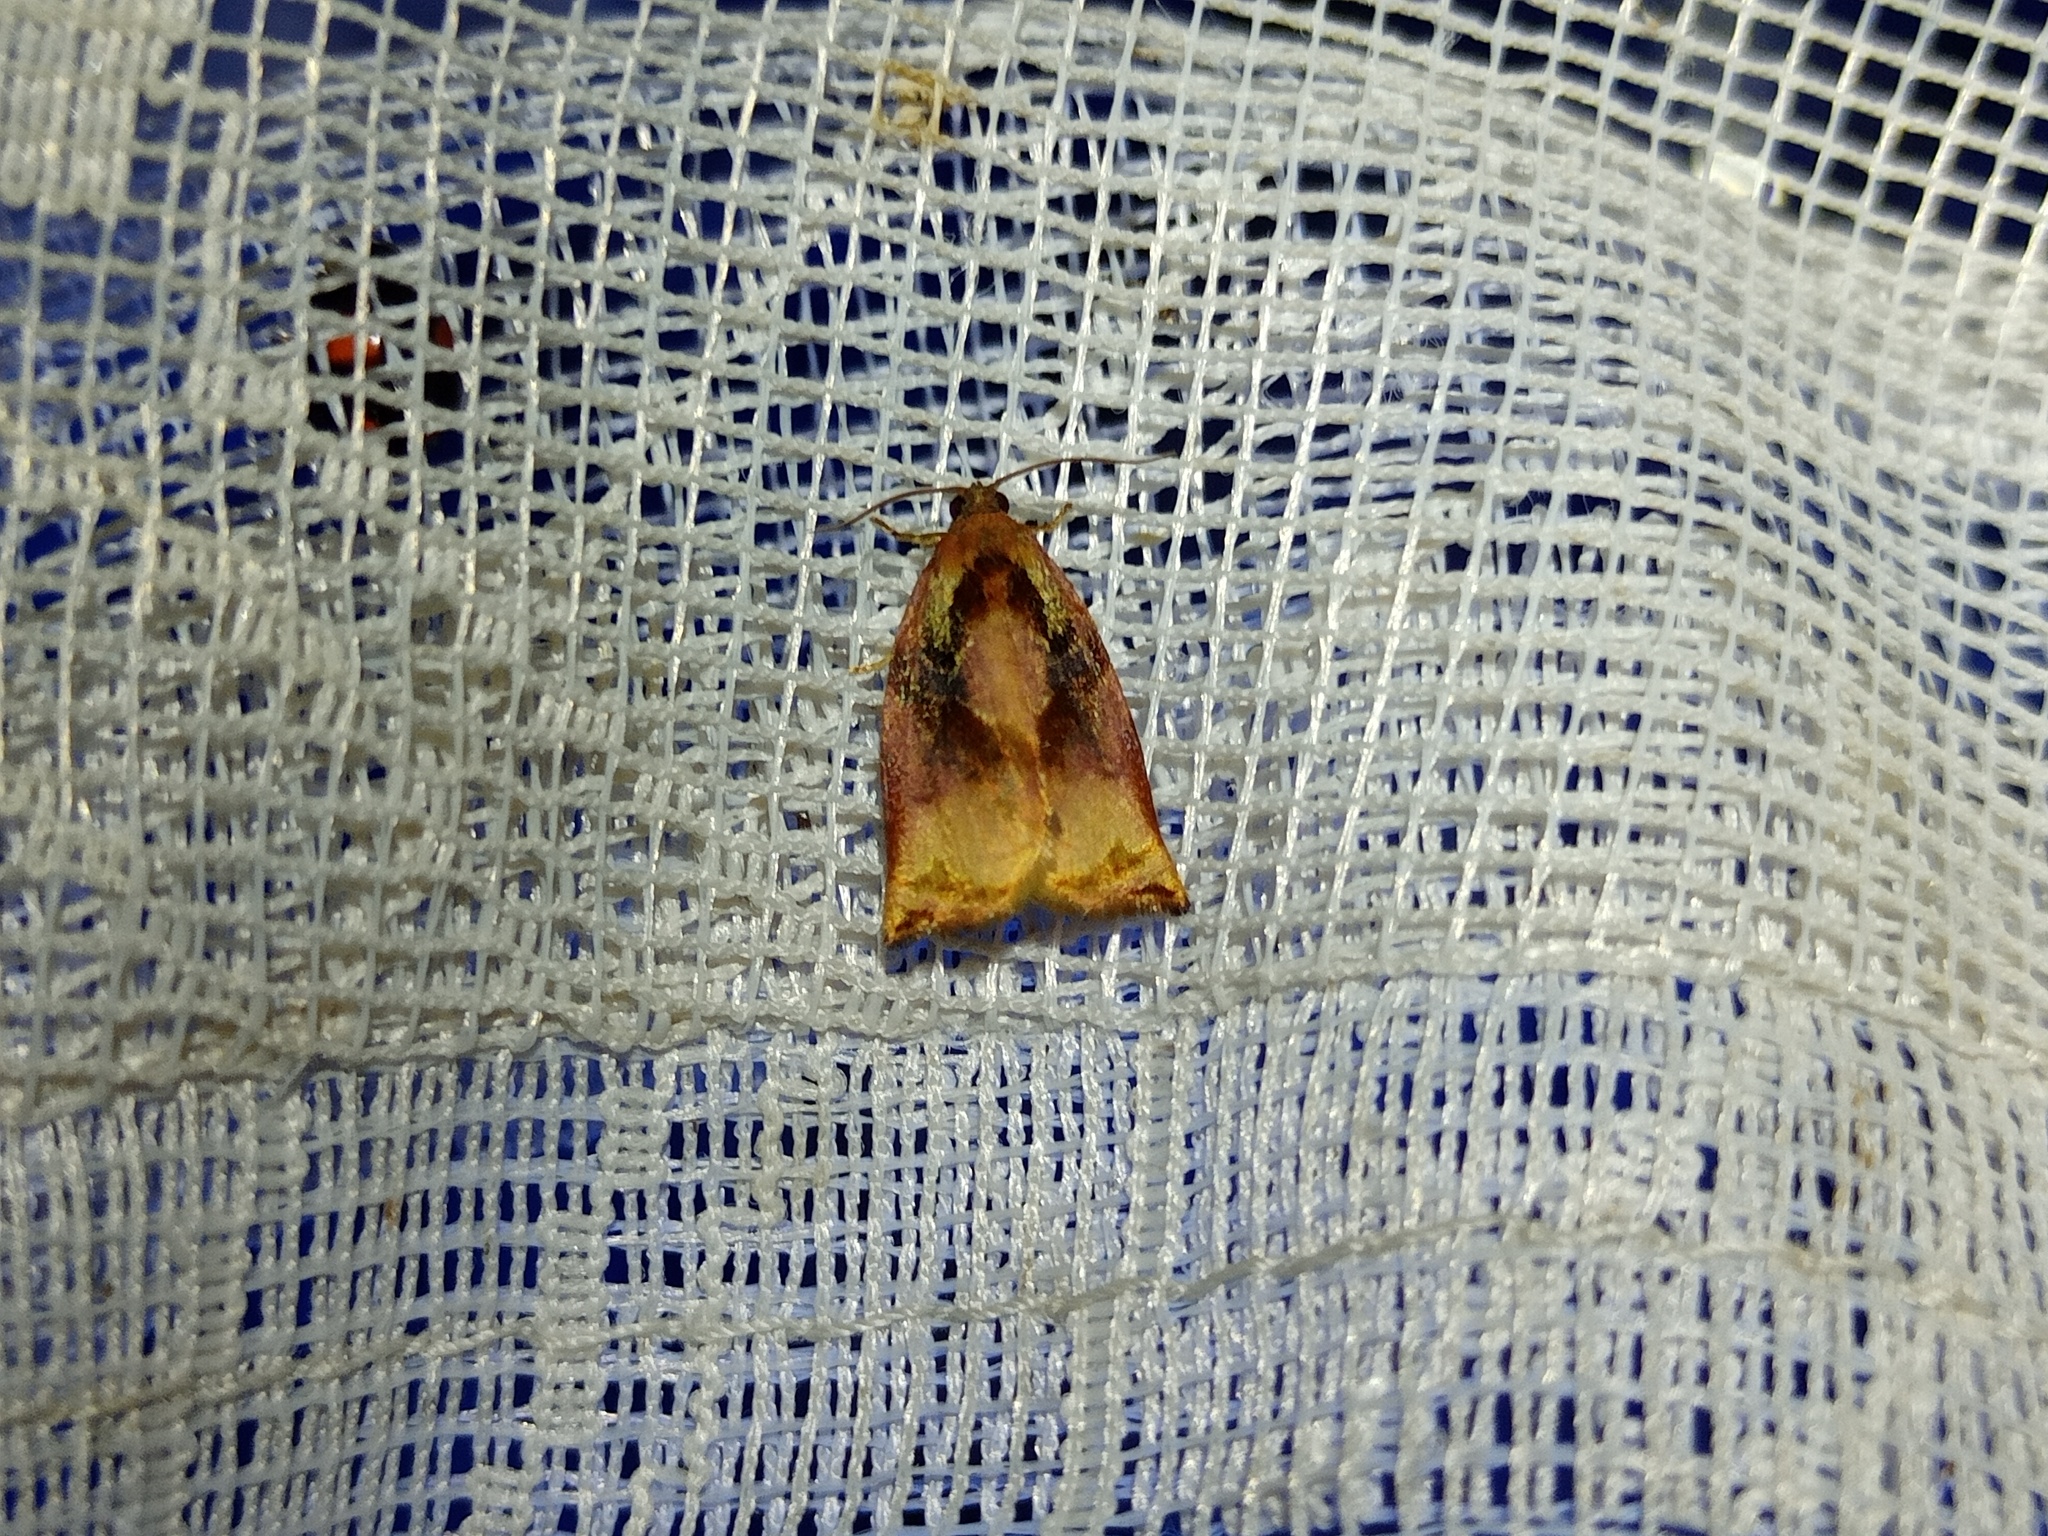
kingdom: Animalia
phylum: Arthropoda
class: Insecta
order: Lepidoptera
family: Tortricidae
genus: Archips
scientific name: Archips podana
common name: Large fruit-tree tortrix
